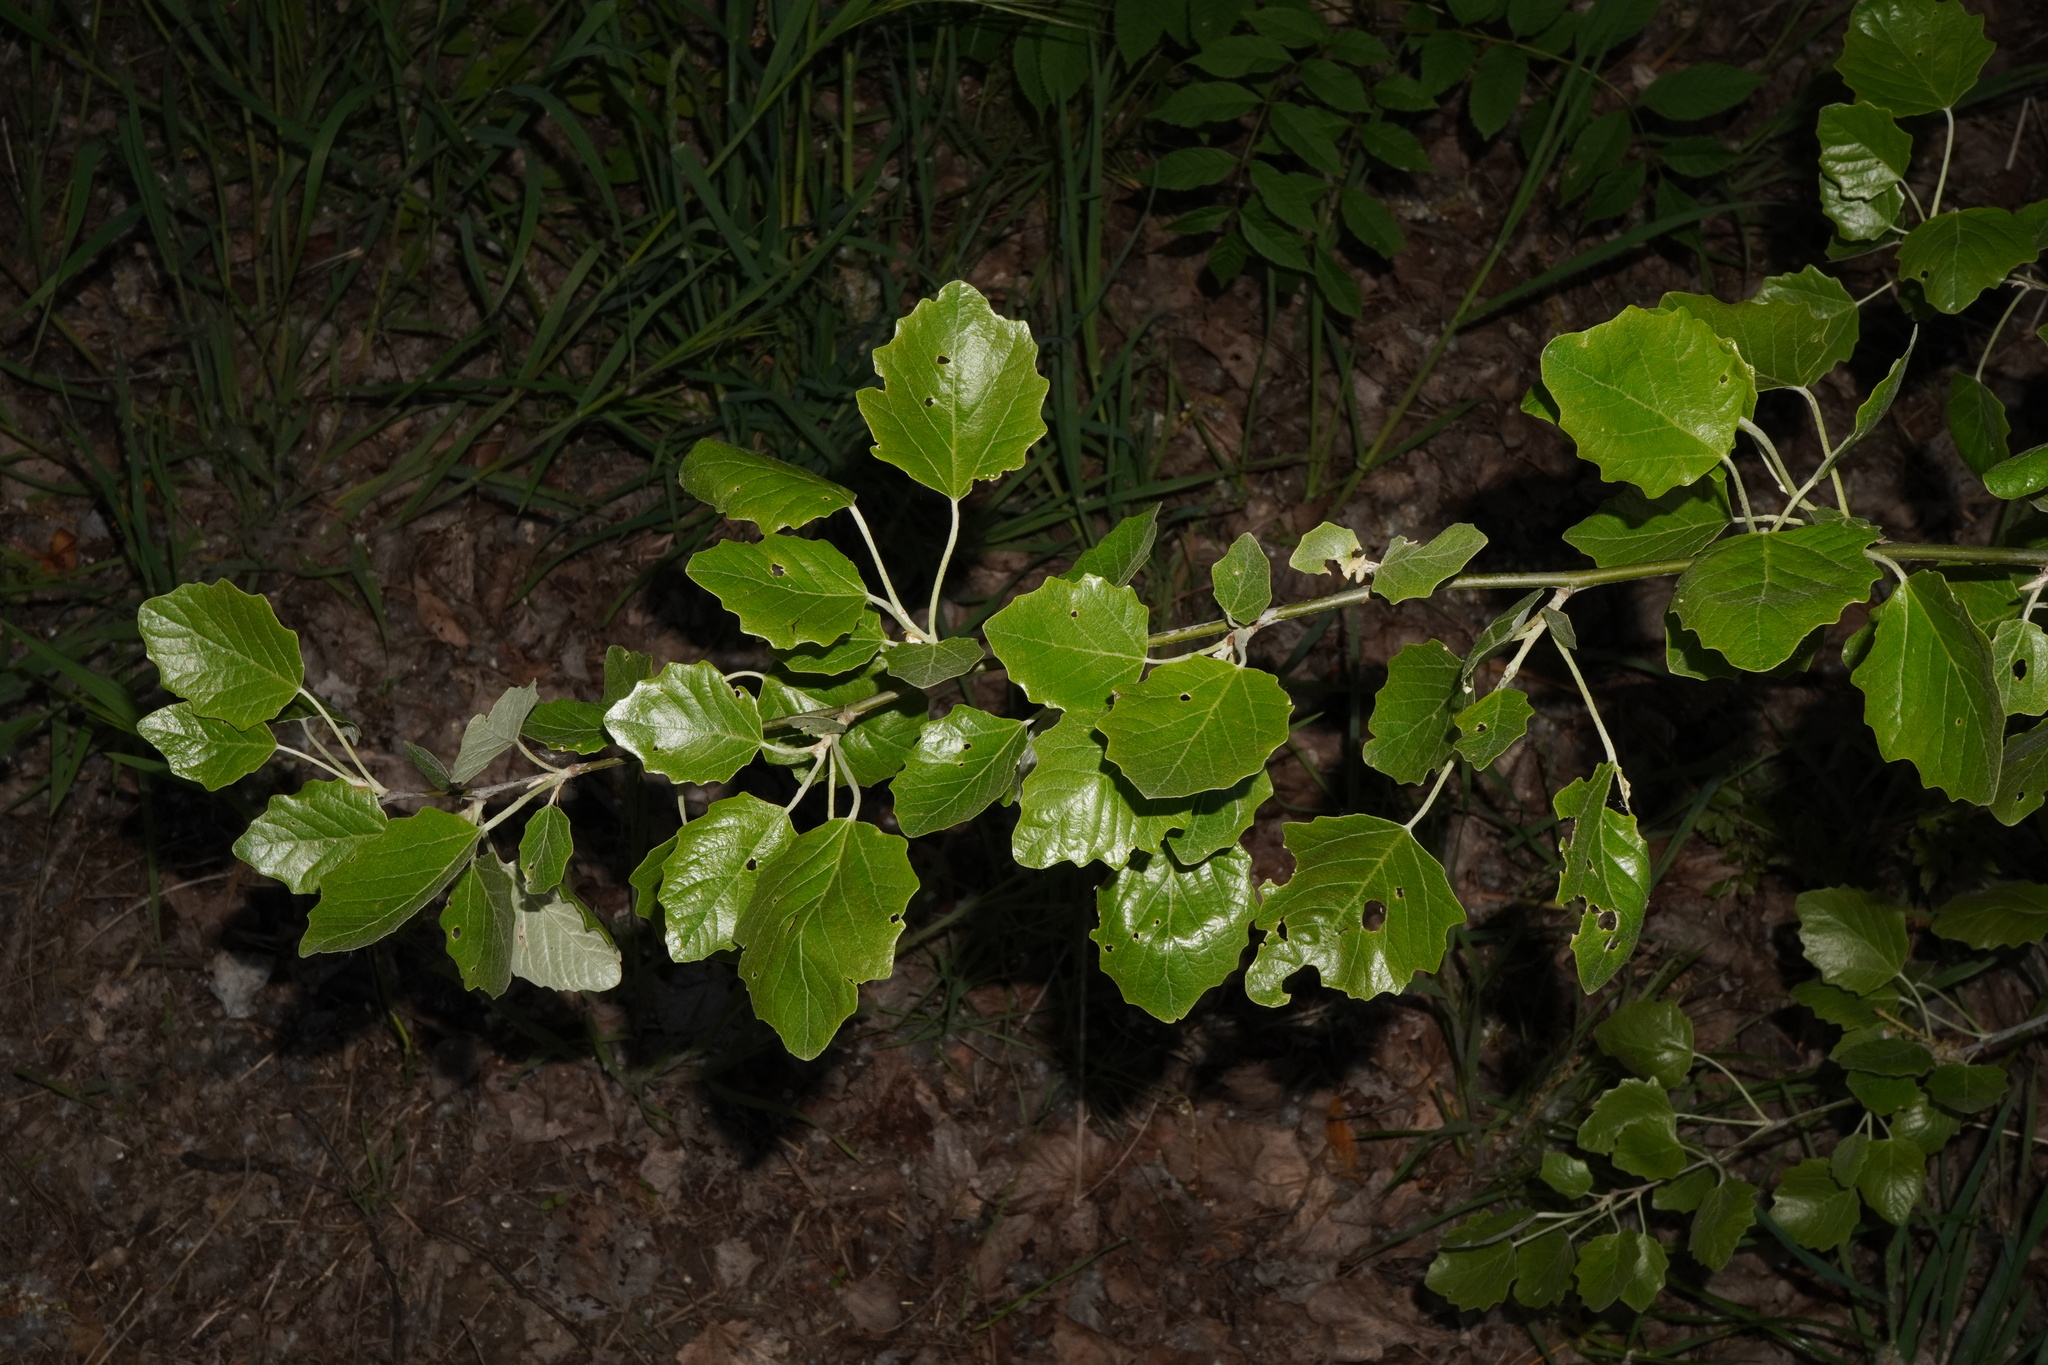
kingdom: Plantae
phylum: Tracheophyta
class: Magnoliopsida
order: Malpighiales
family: Salicaceae
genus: Populus
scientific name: Populus canescens
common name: Gray poplar
